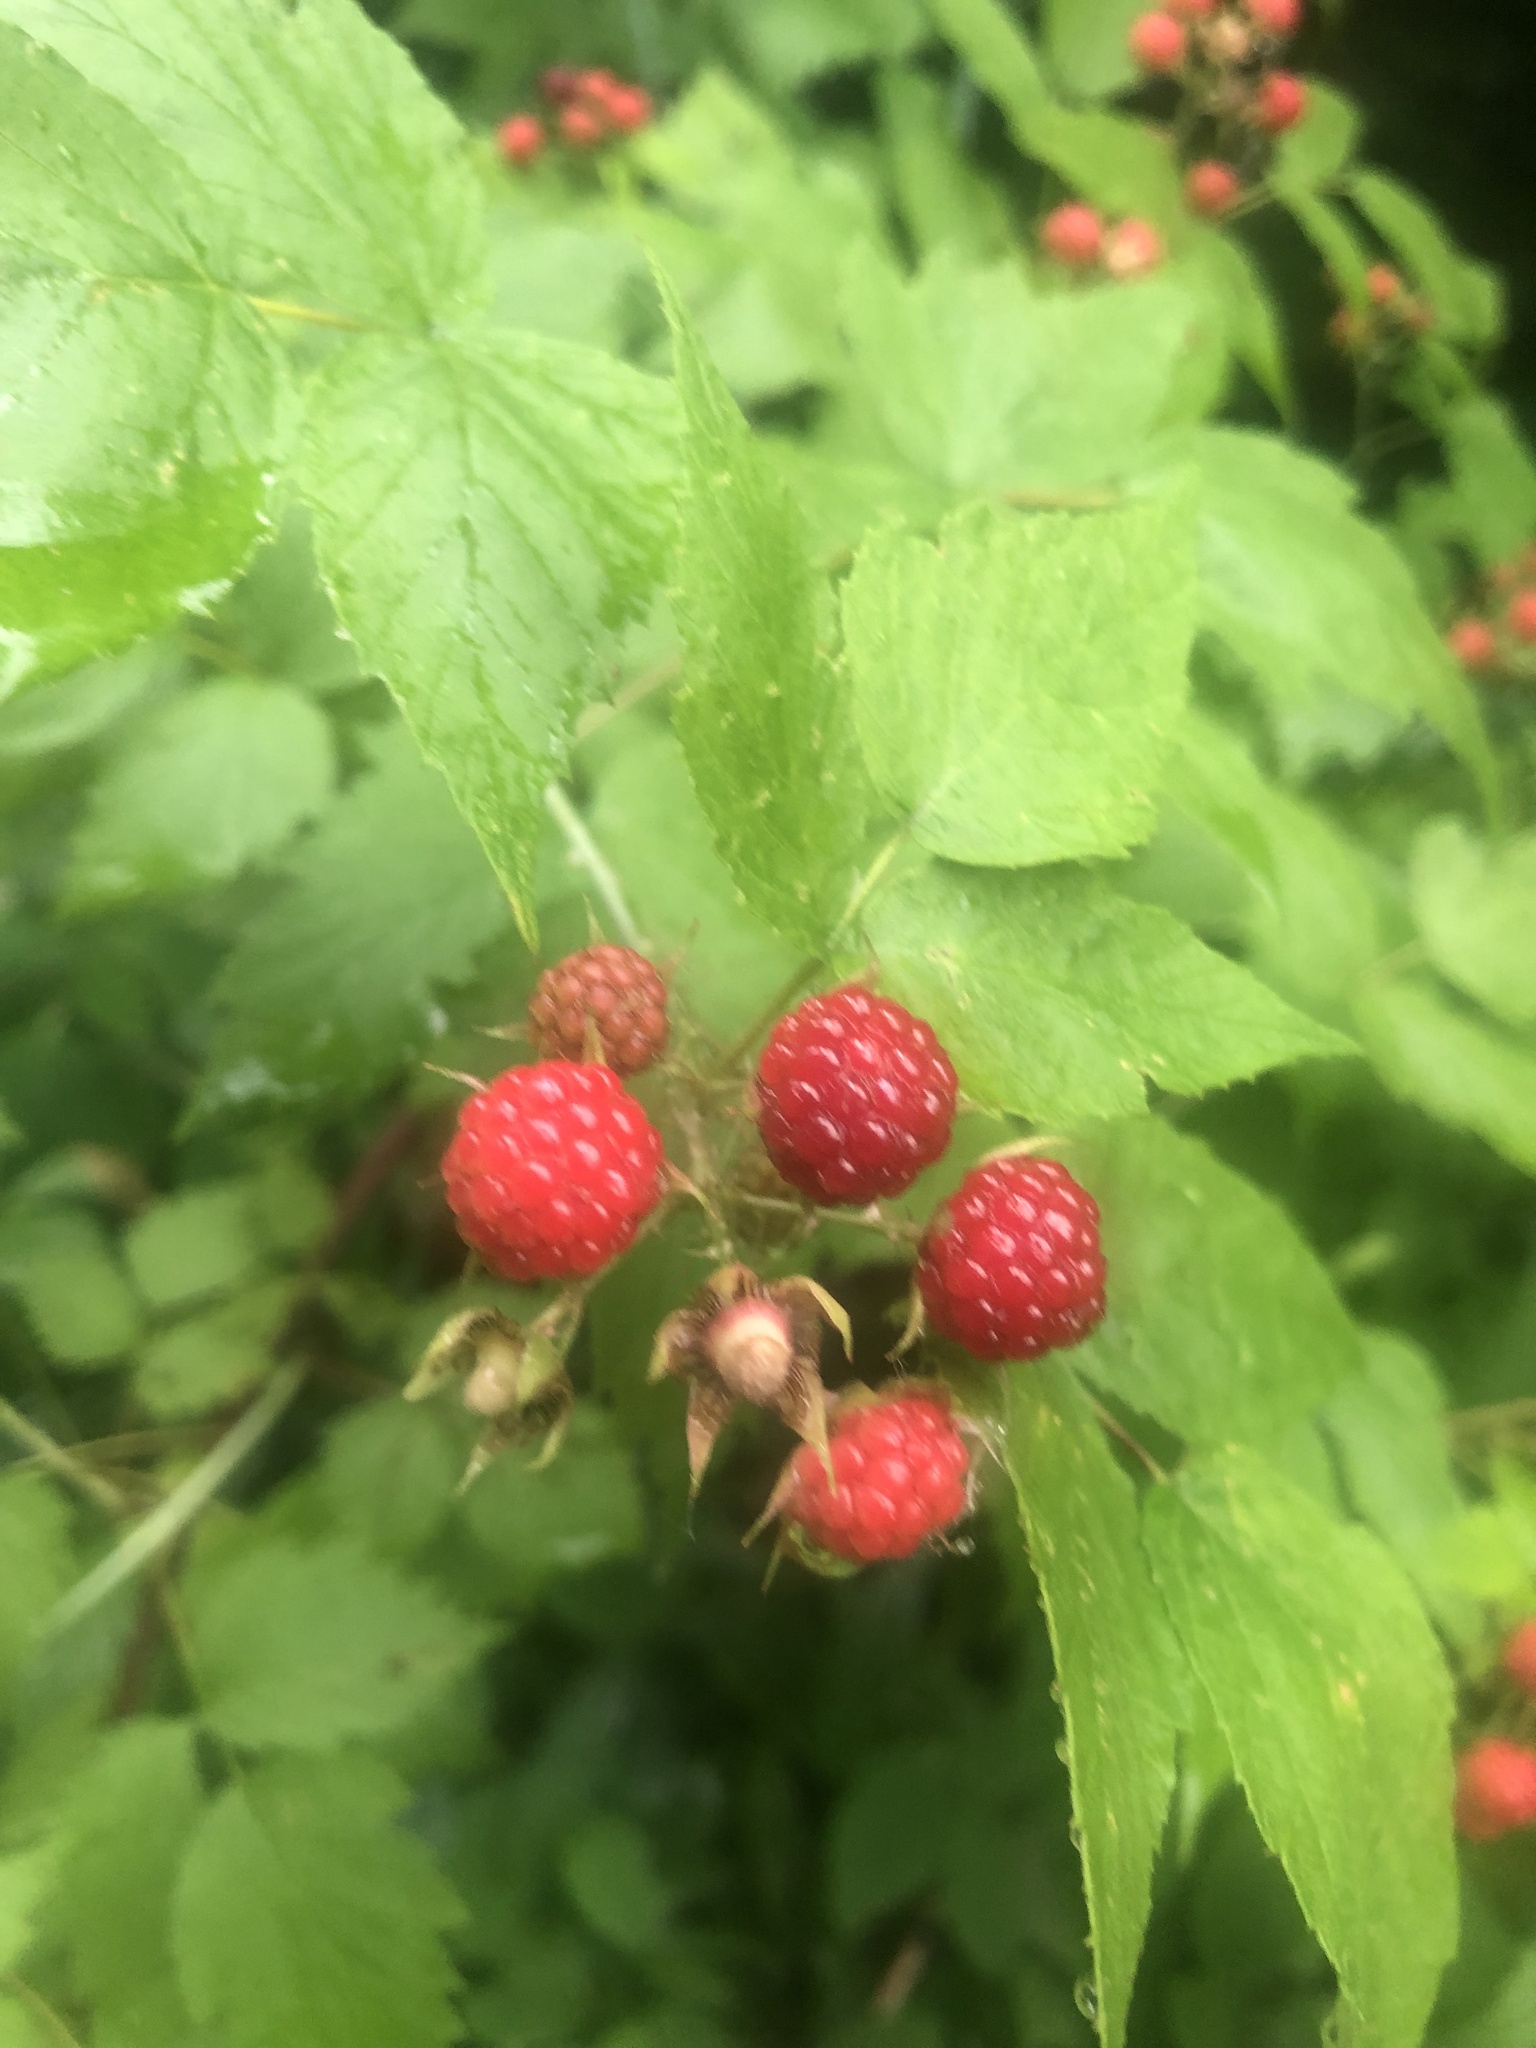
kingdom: Plantae
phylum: Tracheophyta
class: Magnoliopsida
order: Rosales
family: Rosaceae
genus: Rubus
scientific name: Rubus occidentalis
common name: Black raspberry
